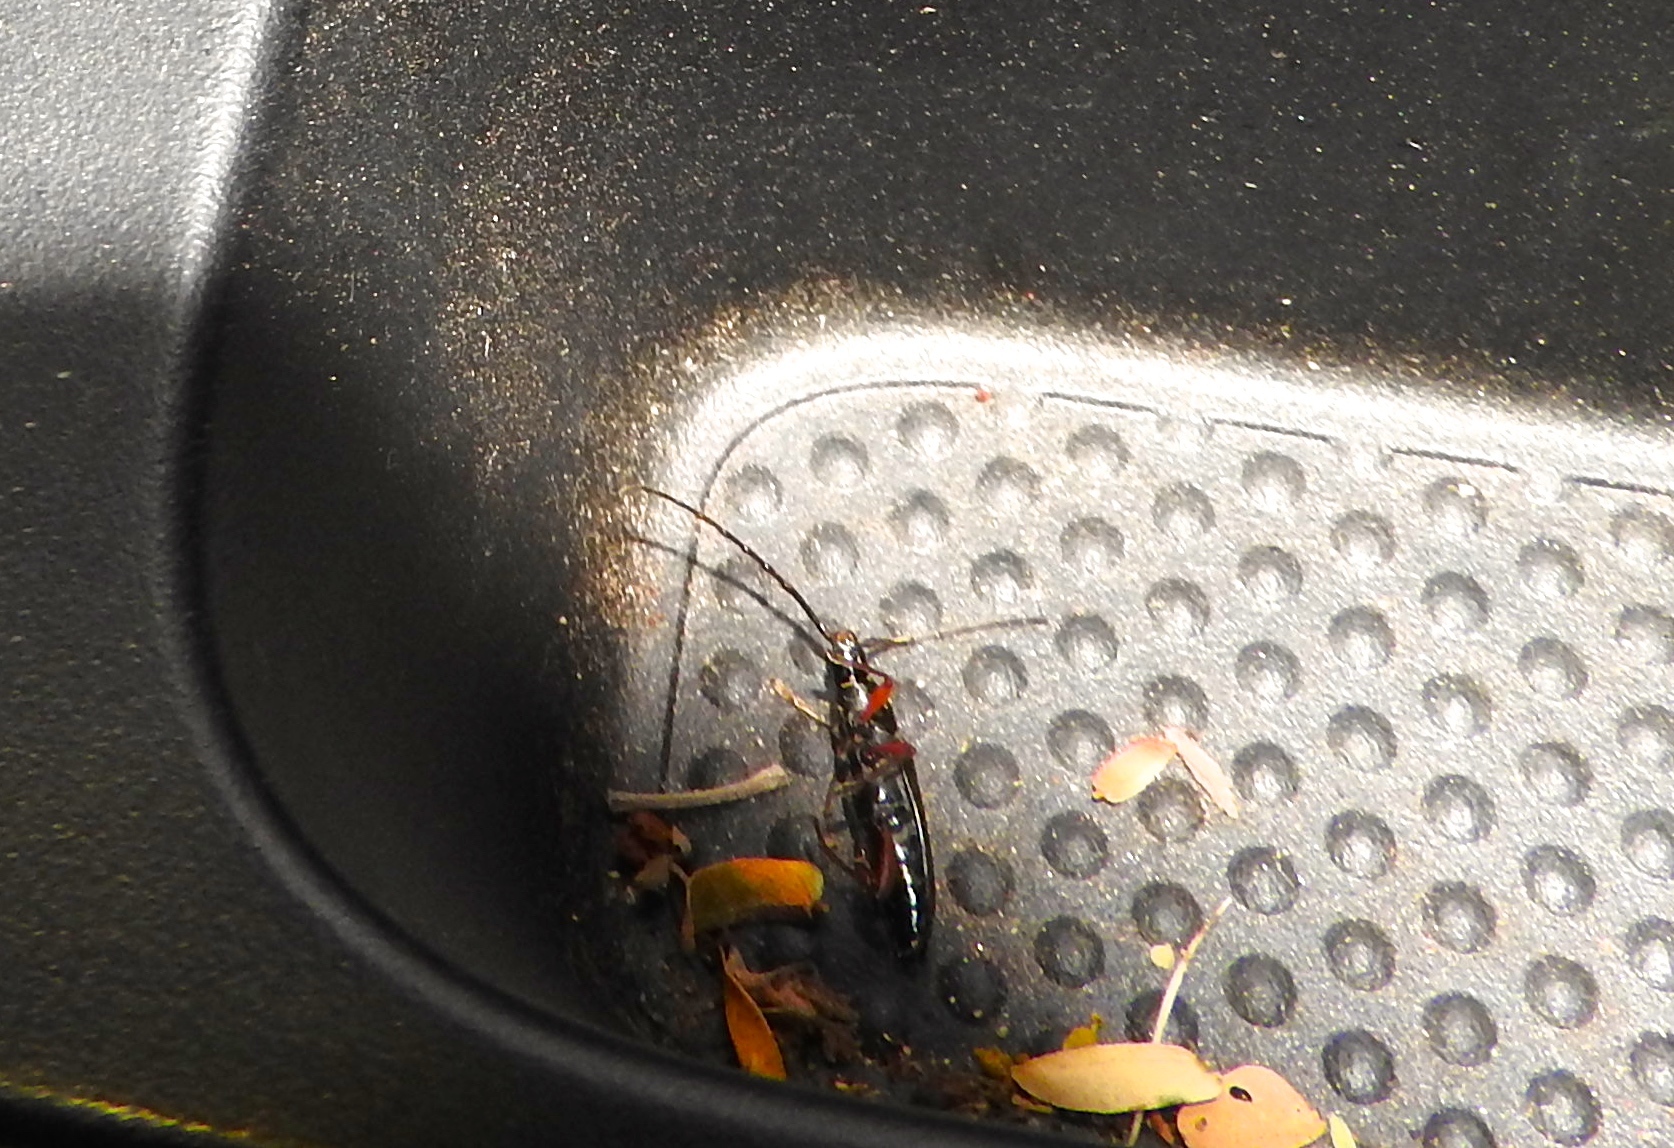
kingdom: Animalia
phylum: Arthropoda
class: Insecta
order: Coleoptera
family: Cerambycidae
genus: Stenosphenus
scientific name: Stenosphenus
